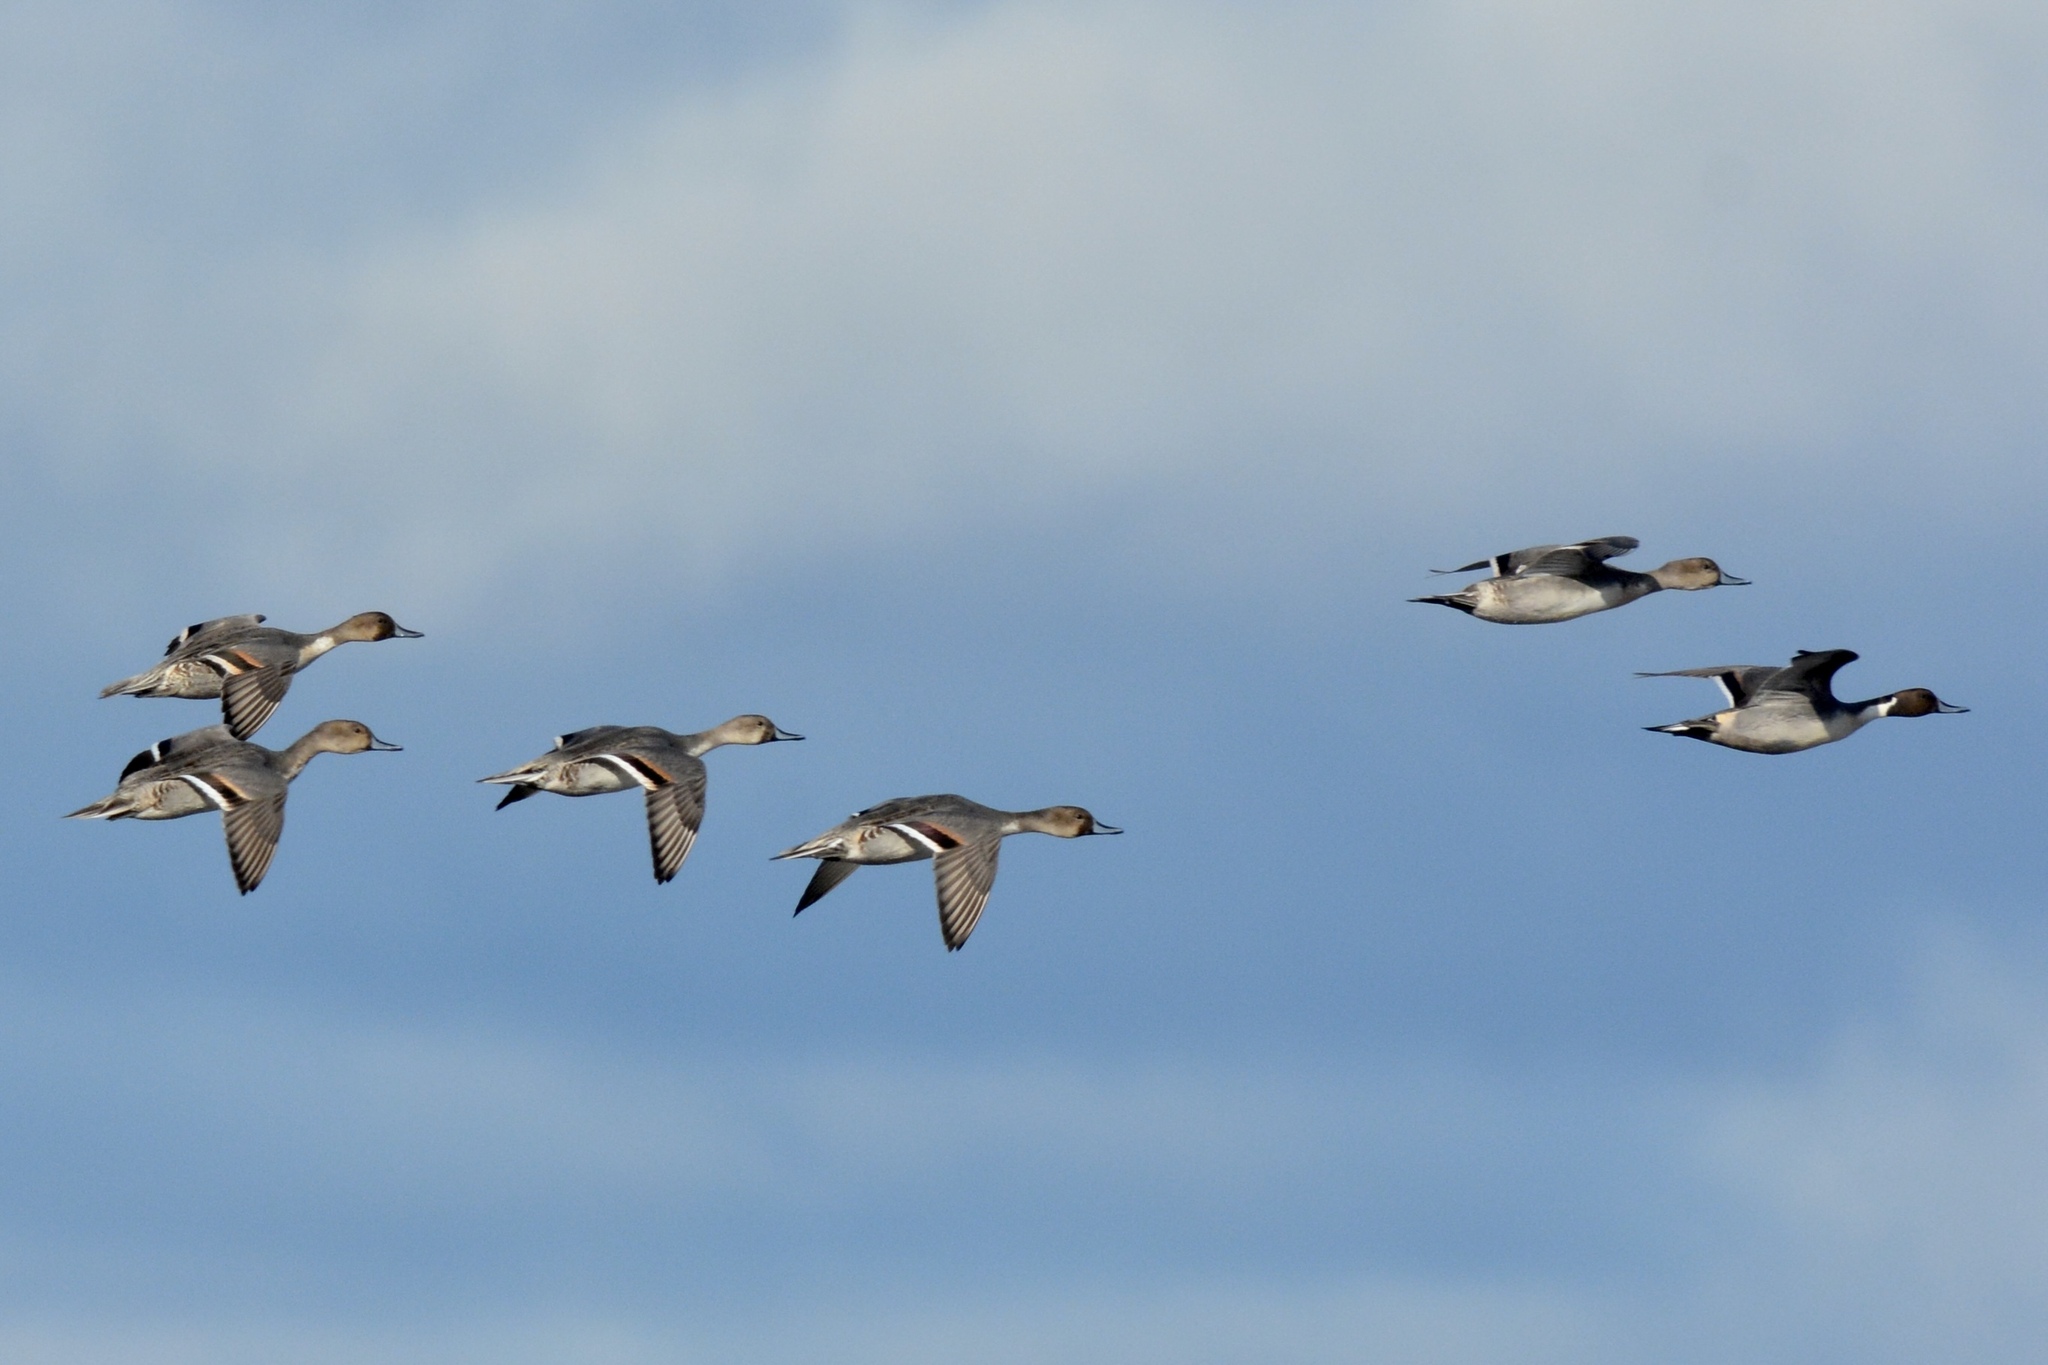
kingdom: Animalia
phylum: Chordata
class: Aves
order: Anseriformes
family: Anatidae
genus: Anas
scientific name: Anas acuta
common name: Northern pintail
